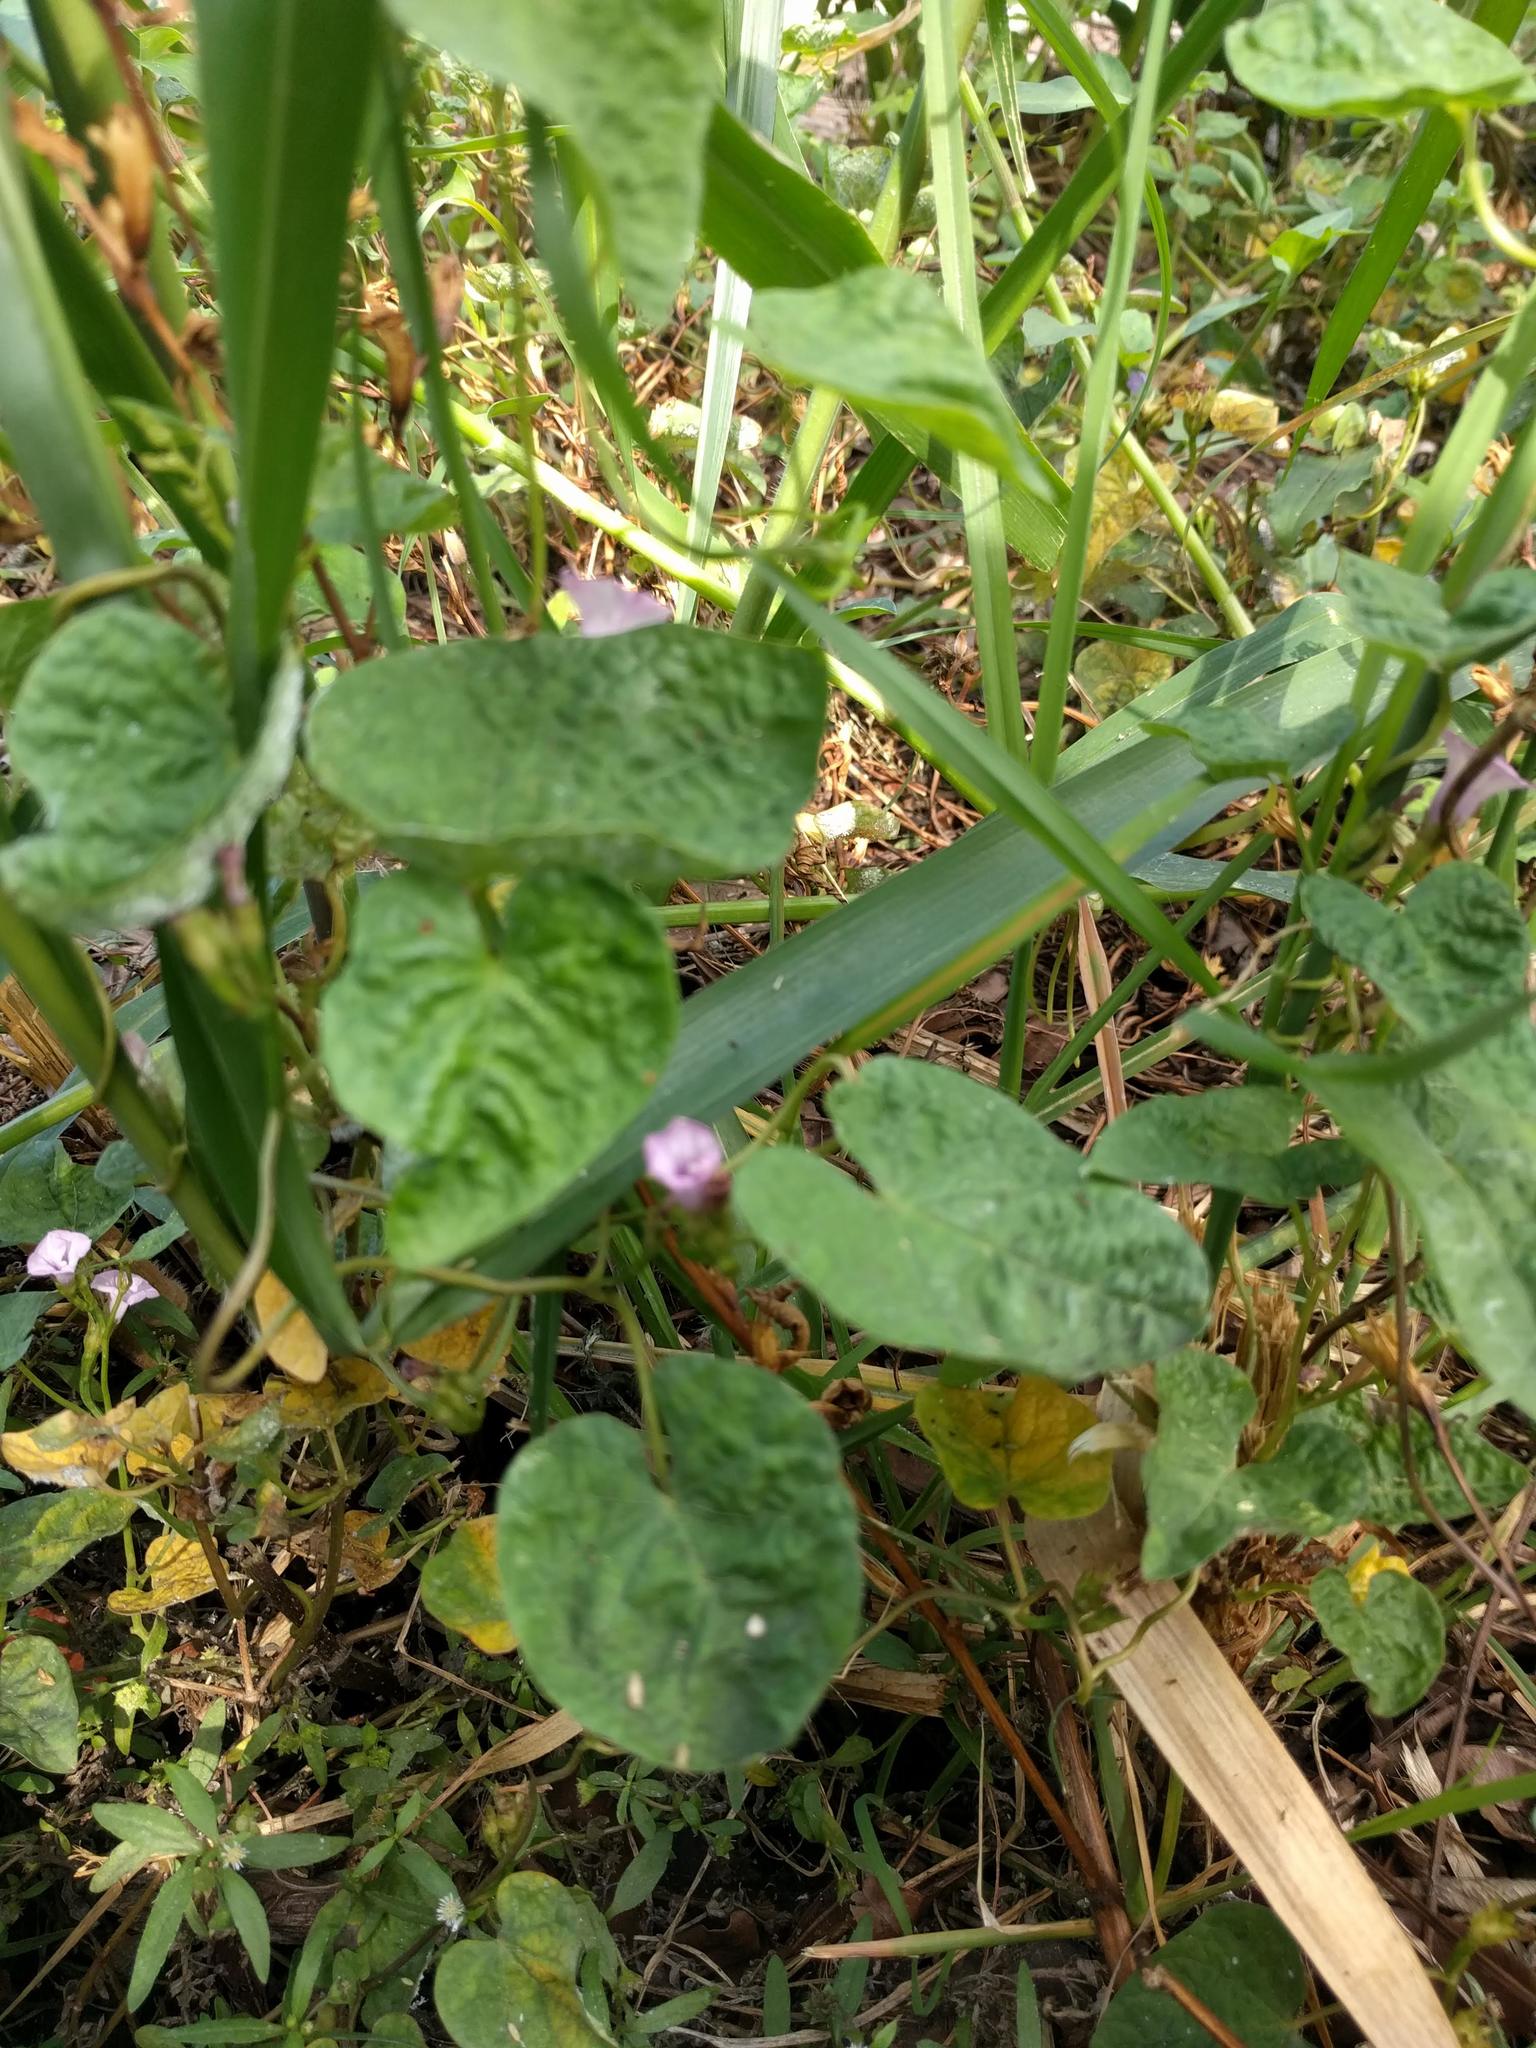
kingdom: Plantae
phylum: Tracheophyta
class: Magnoliopsida
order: Solanales
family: Convolvulaceae
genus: Ipomoea
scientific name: Ipomoea triloba
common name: Little-bell
